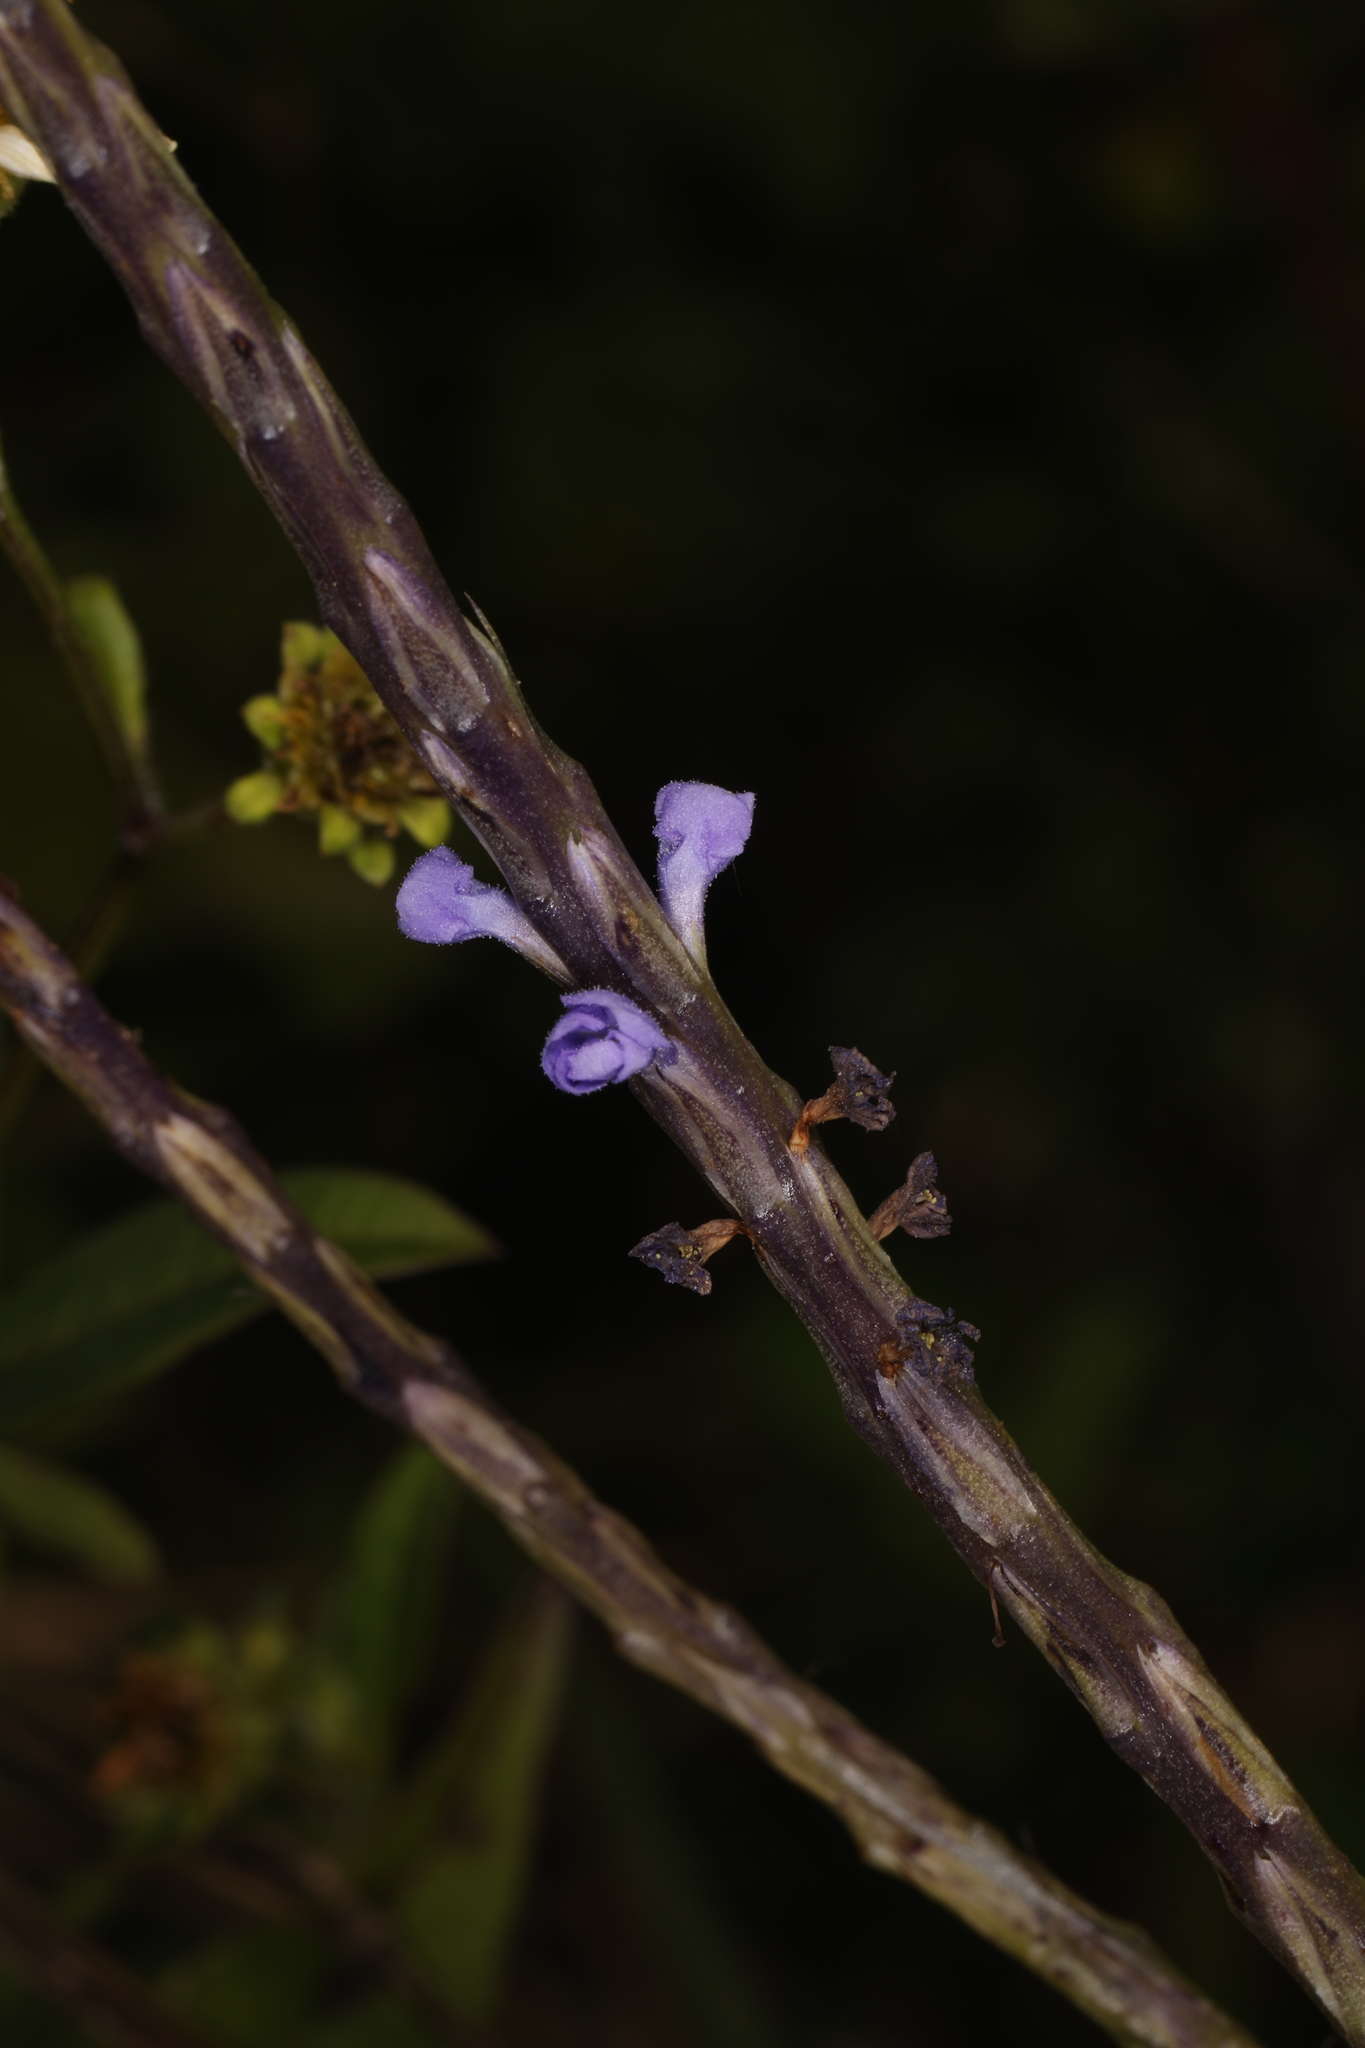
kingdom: Plantae
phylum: Tracheophyta
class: Magnoliopsida
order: Lamiales
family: Verbenaceae
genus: Stachytarpheta
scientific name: Stachytarpheta jamaicensis
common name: Light-blue snakeweed
